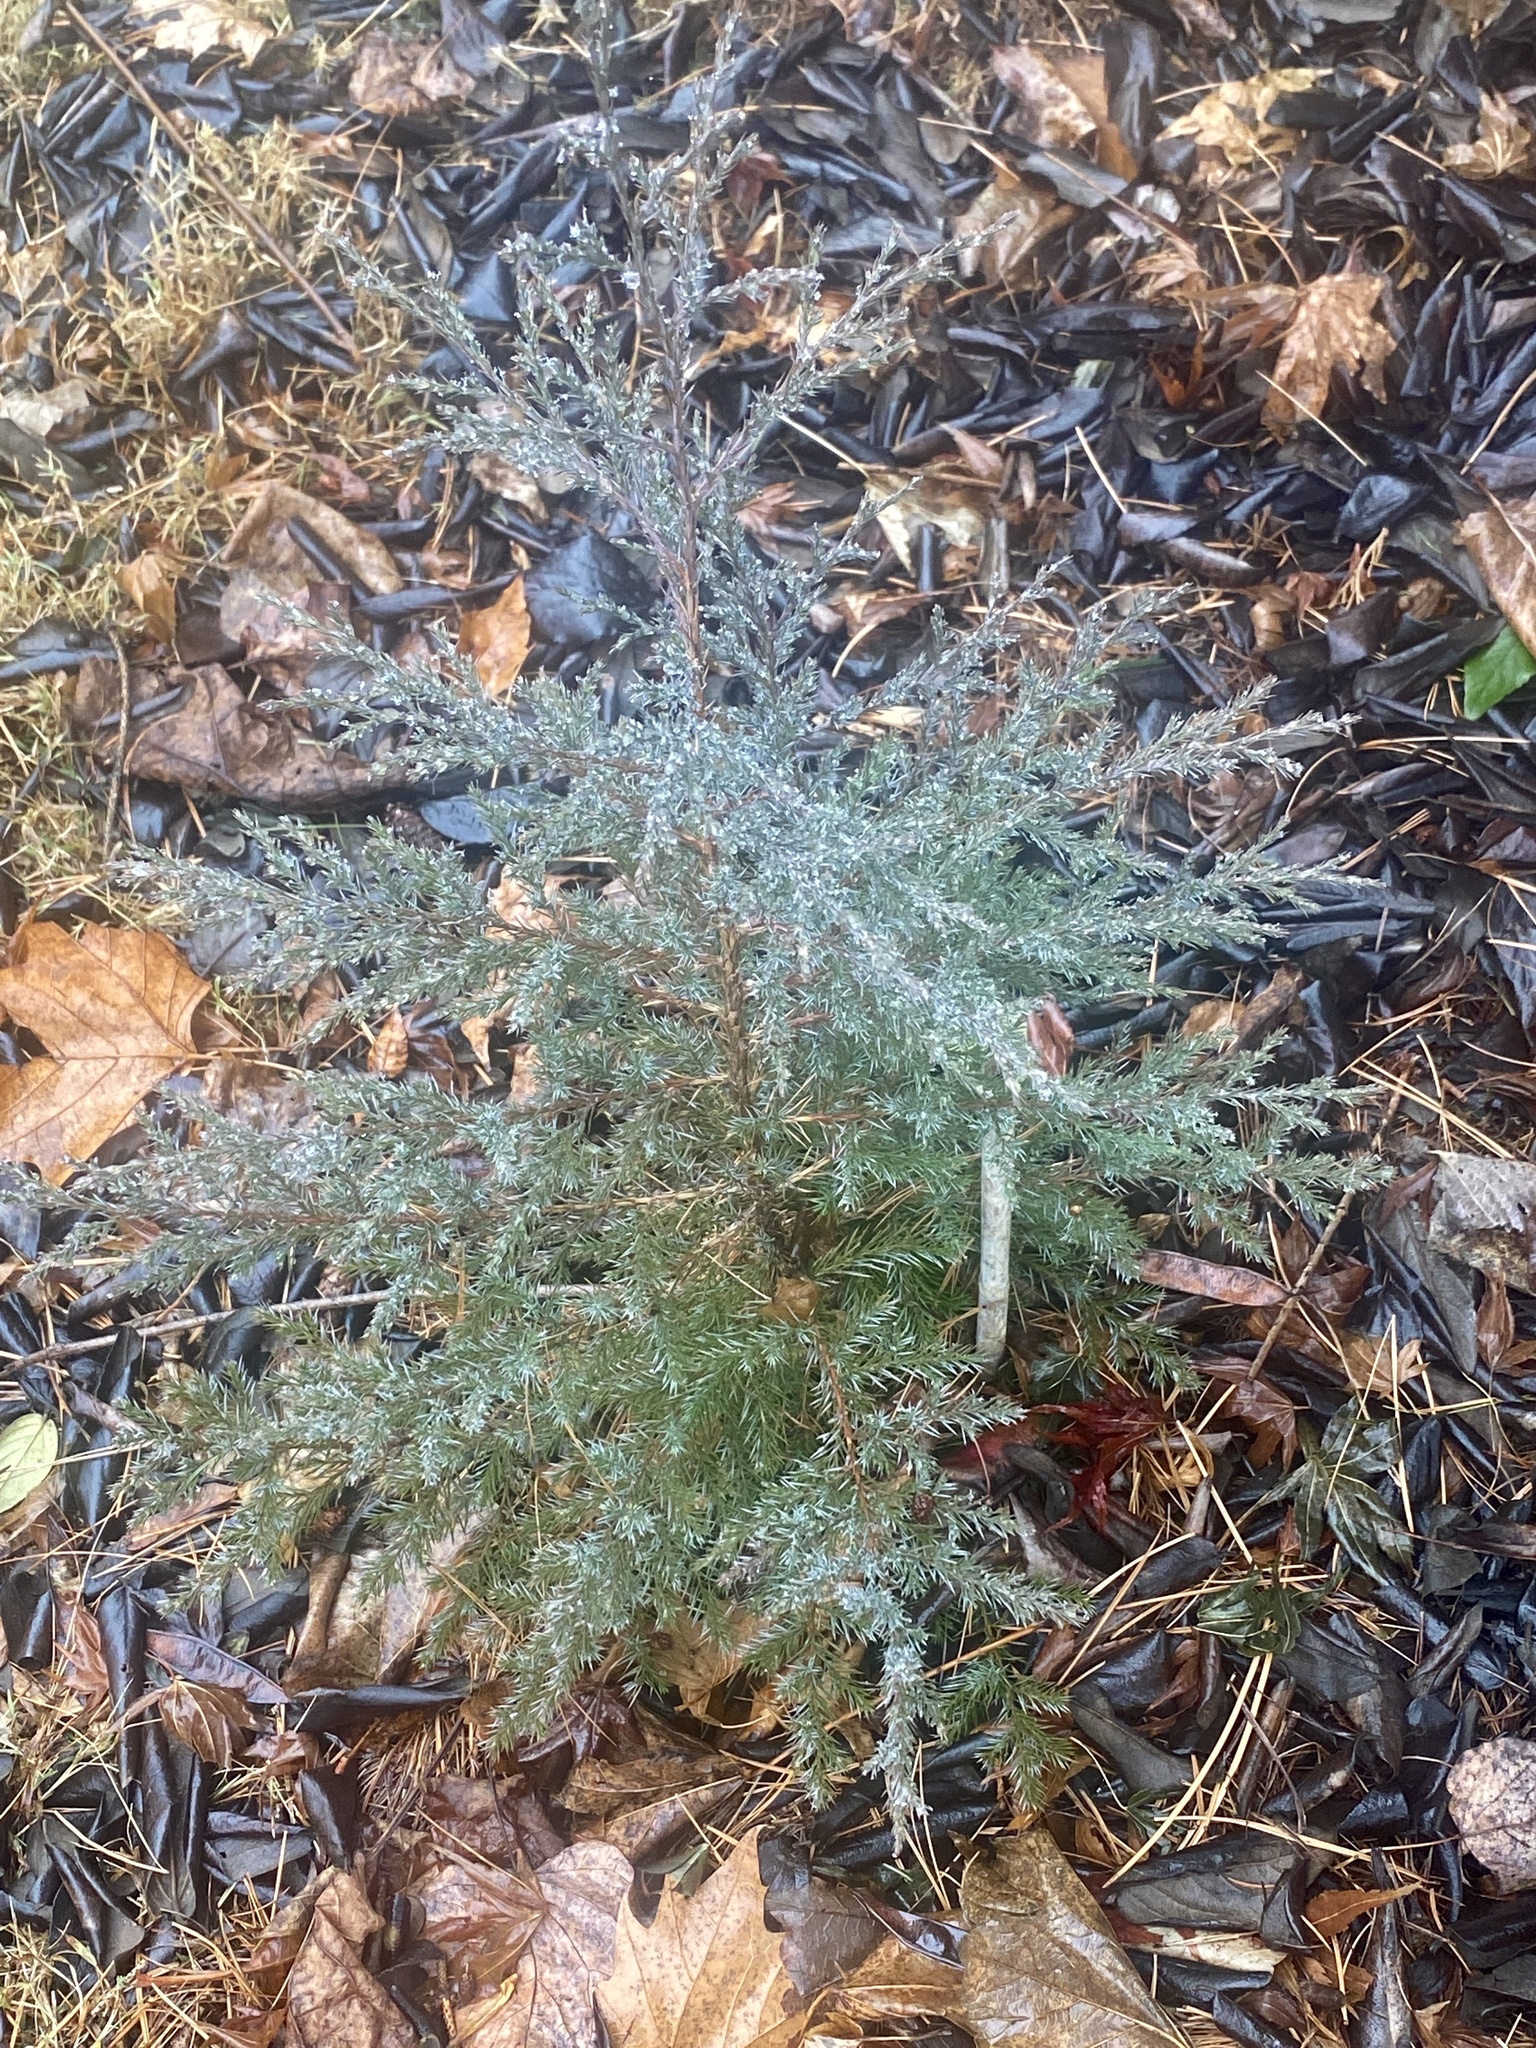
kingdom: Plantae
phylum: Tracheophyta
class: Pinopsida
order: Pinales
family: Cupressaceae
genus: Juniperus
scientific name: Juniperus virginiana
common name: Red juniper
